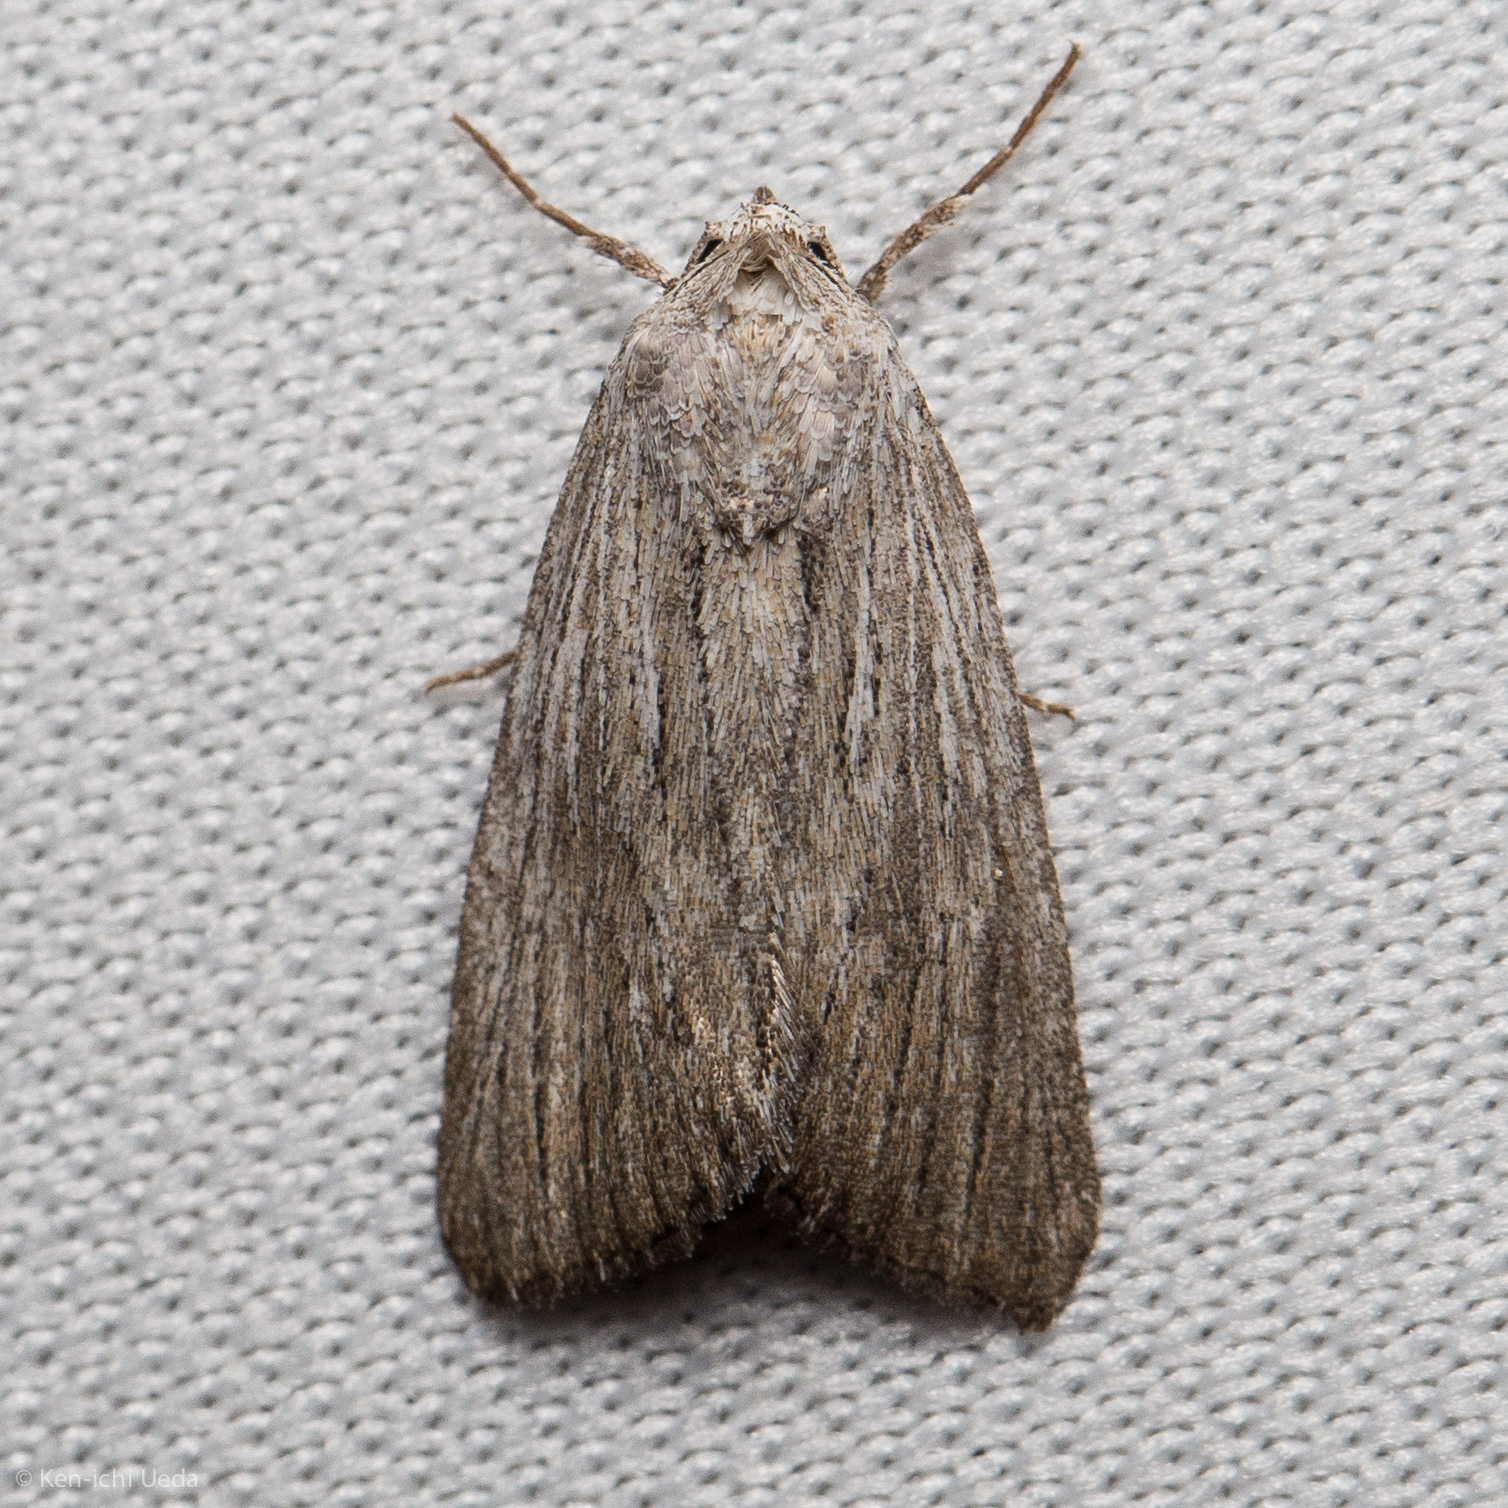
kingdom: Animalia
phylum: Arthropoda
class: Insecta
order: Lepidoptera
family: Noctuidae
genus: Catabena
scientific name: Catabena lineolata
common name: Fine-lined sallow
